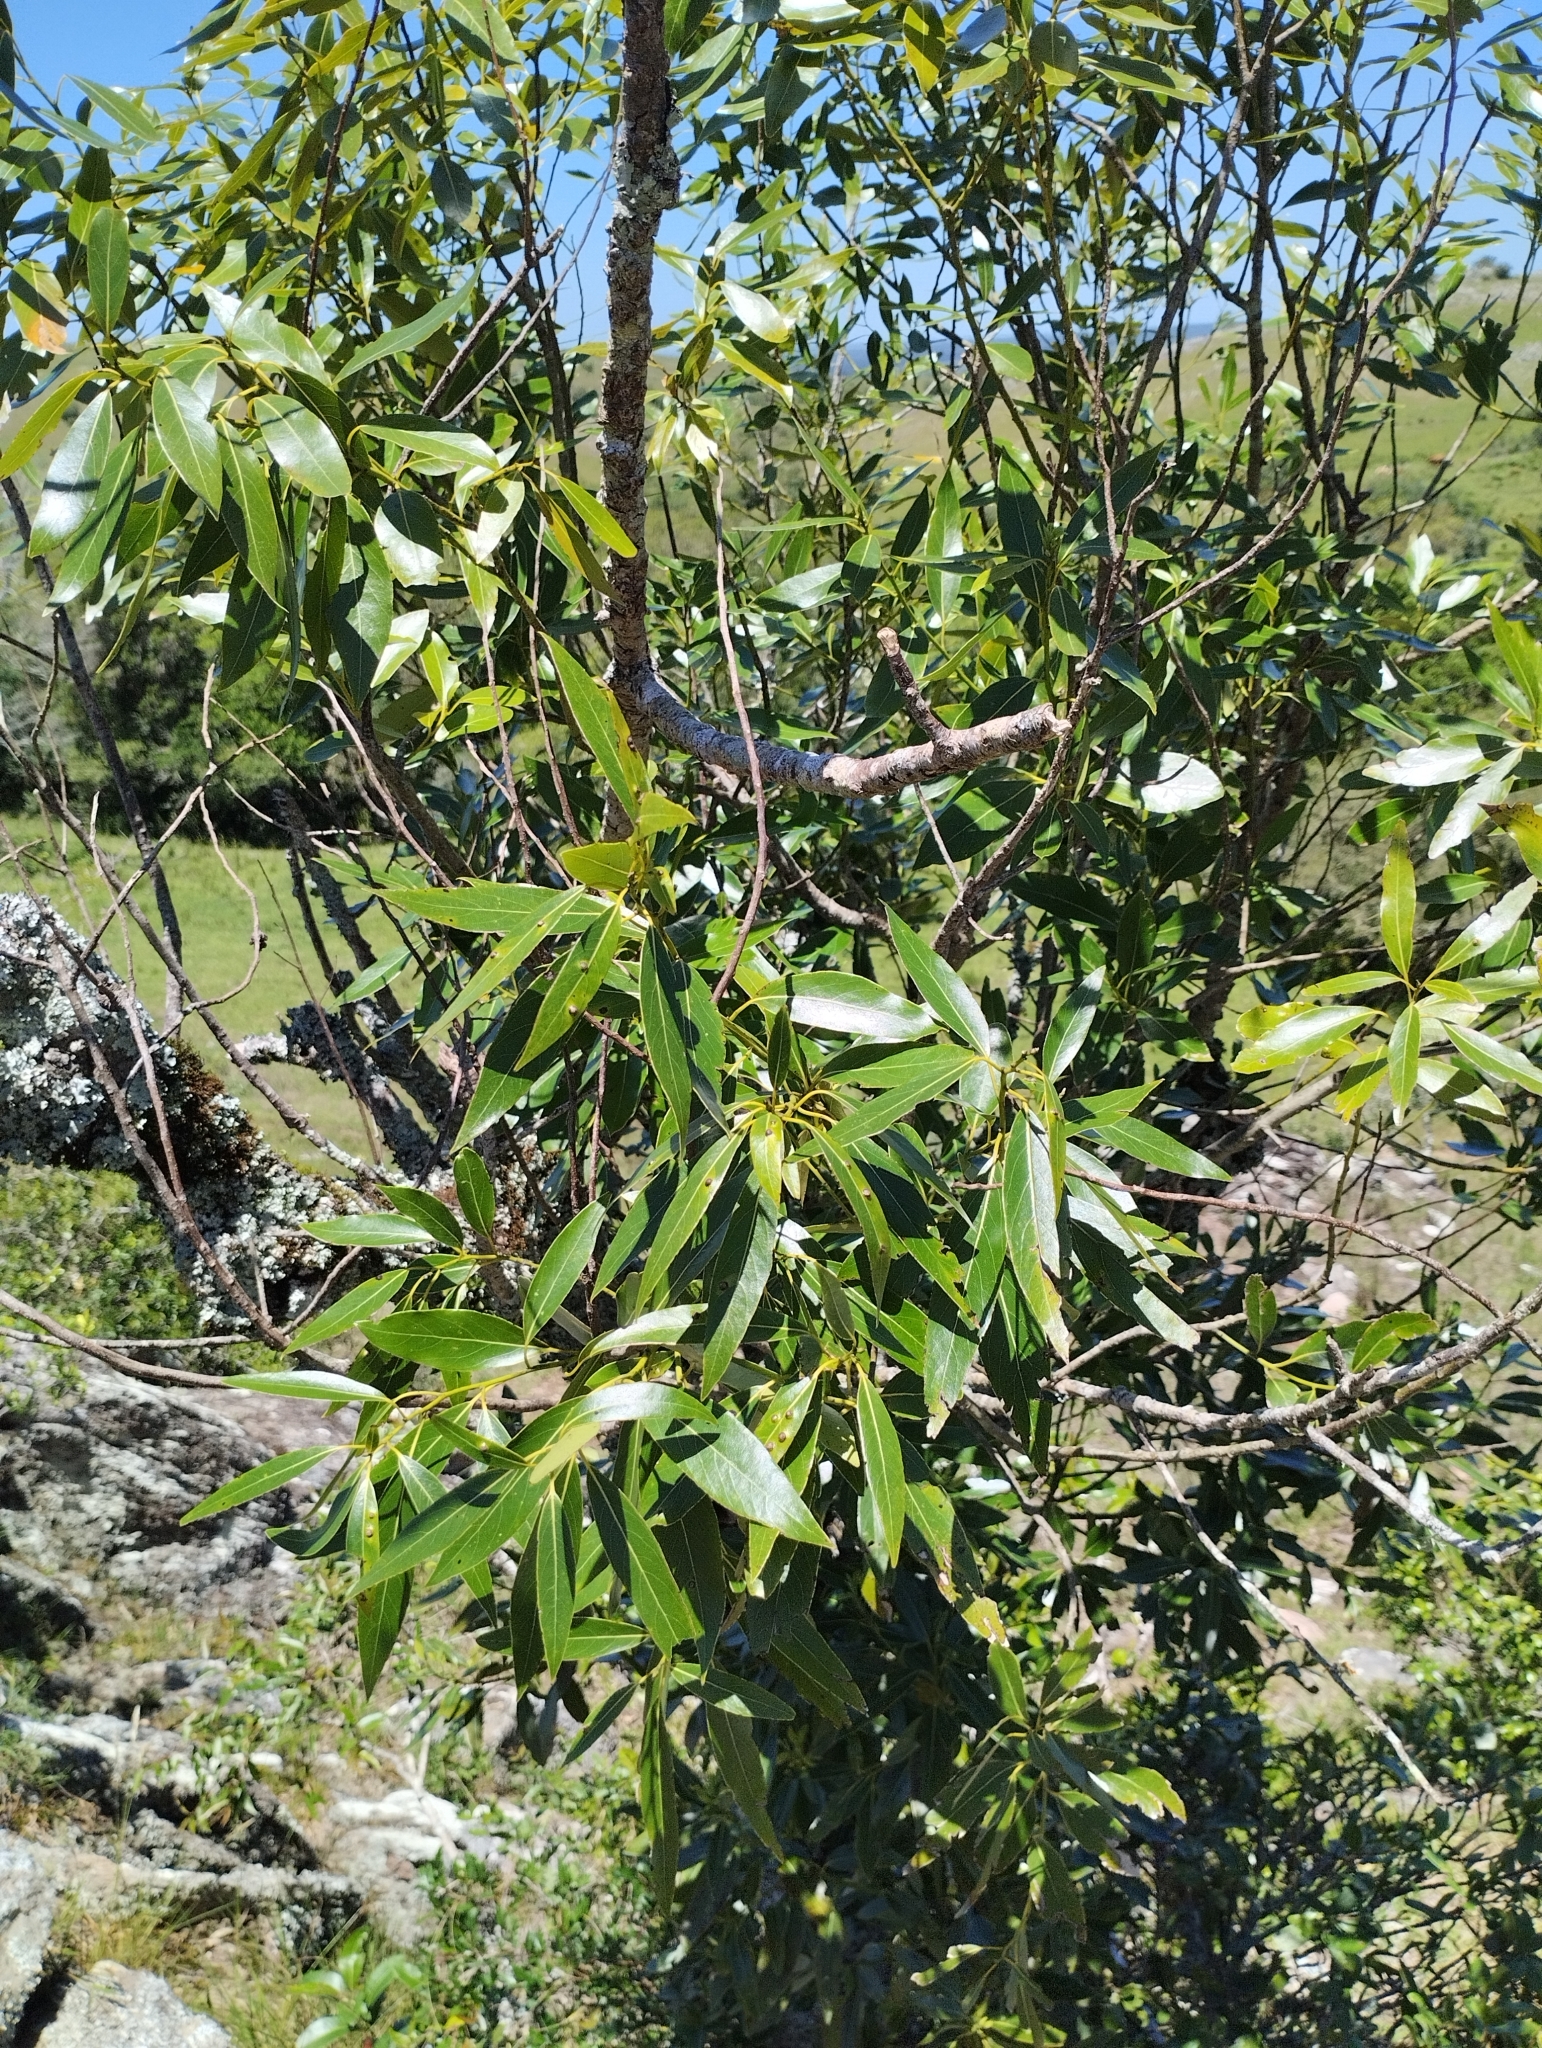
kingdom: Plantae
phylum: Tracheophyta
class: Magnoliopsida
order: Laurales
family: Lauraceae
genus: Ocotea
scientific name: Ocotea acutifolia
